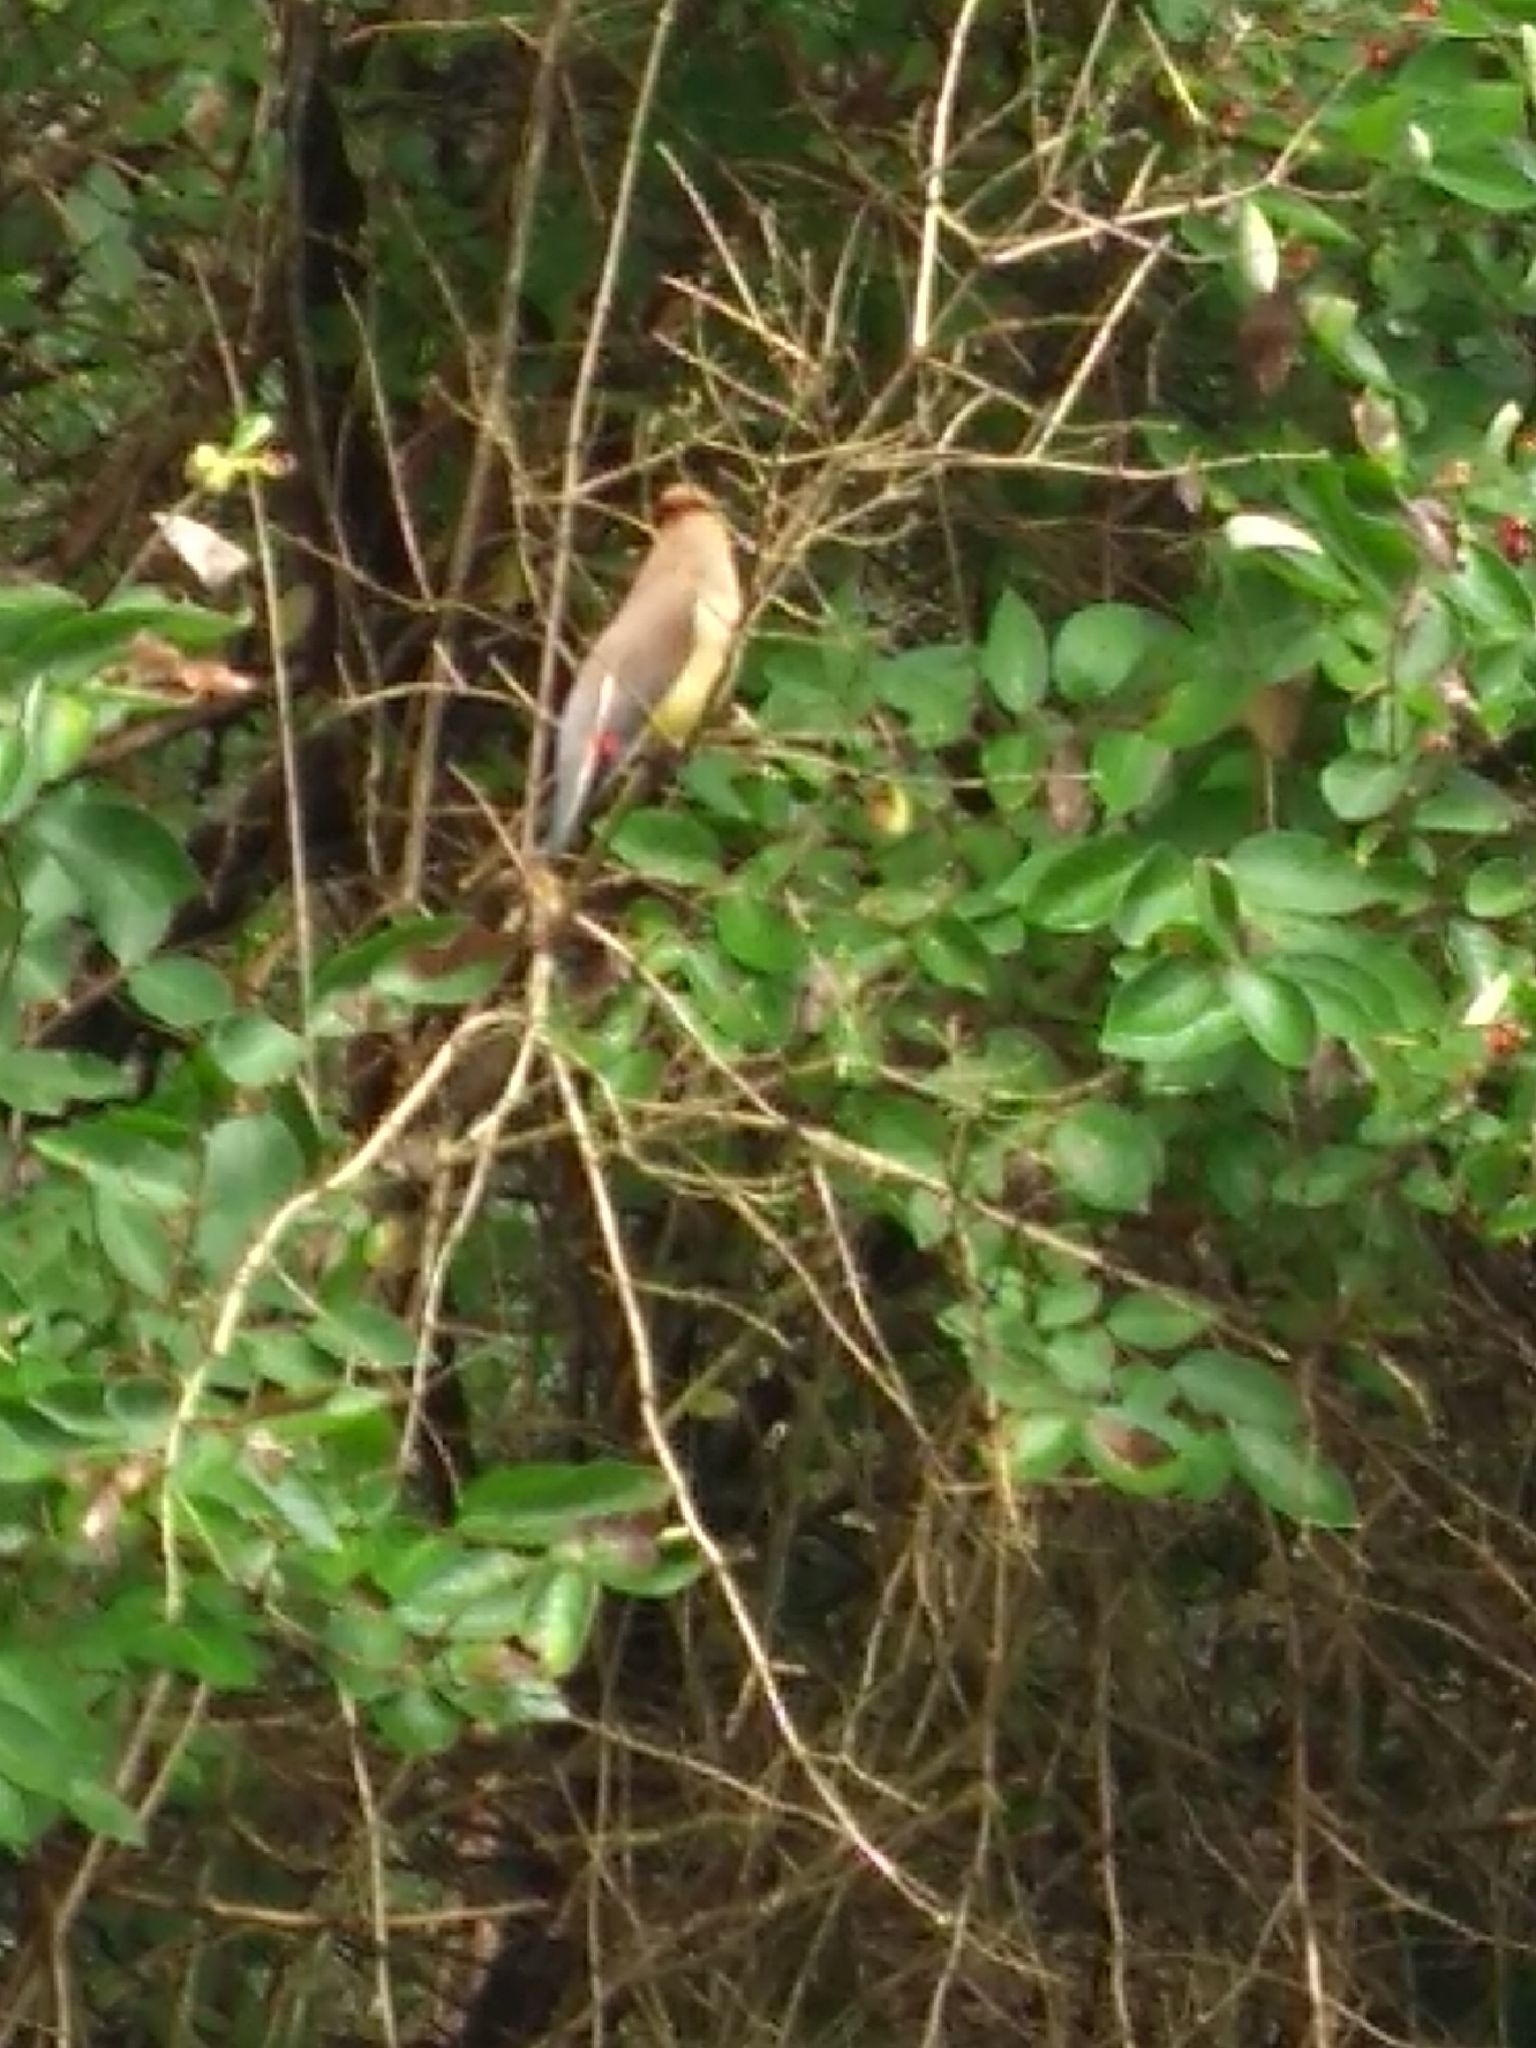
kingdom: Animalia
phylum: Chordata
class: Aves
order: Passeriformes
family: Bombycillidae
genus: Bombycilla
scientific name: Bombycilla cedrorum
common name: Cedar waxwing
